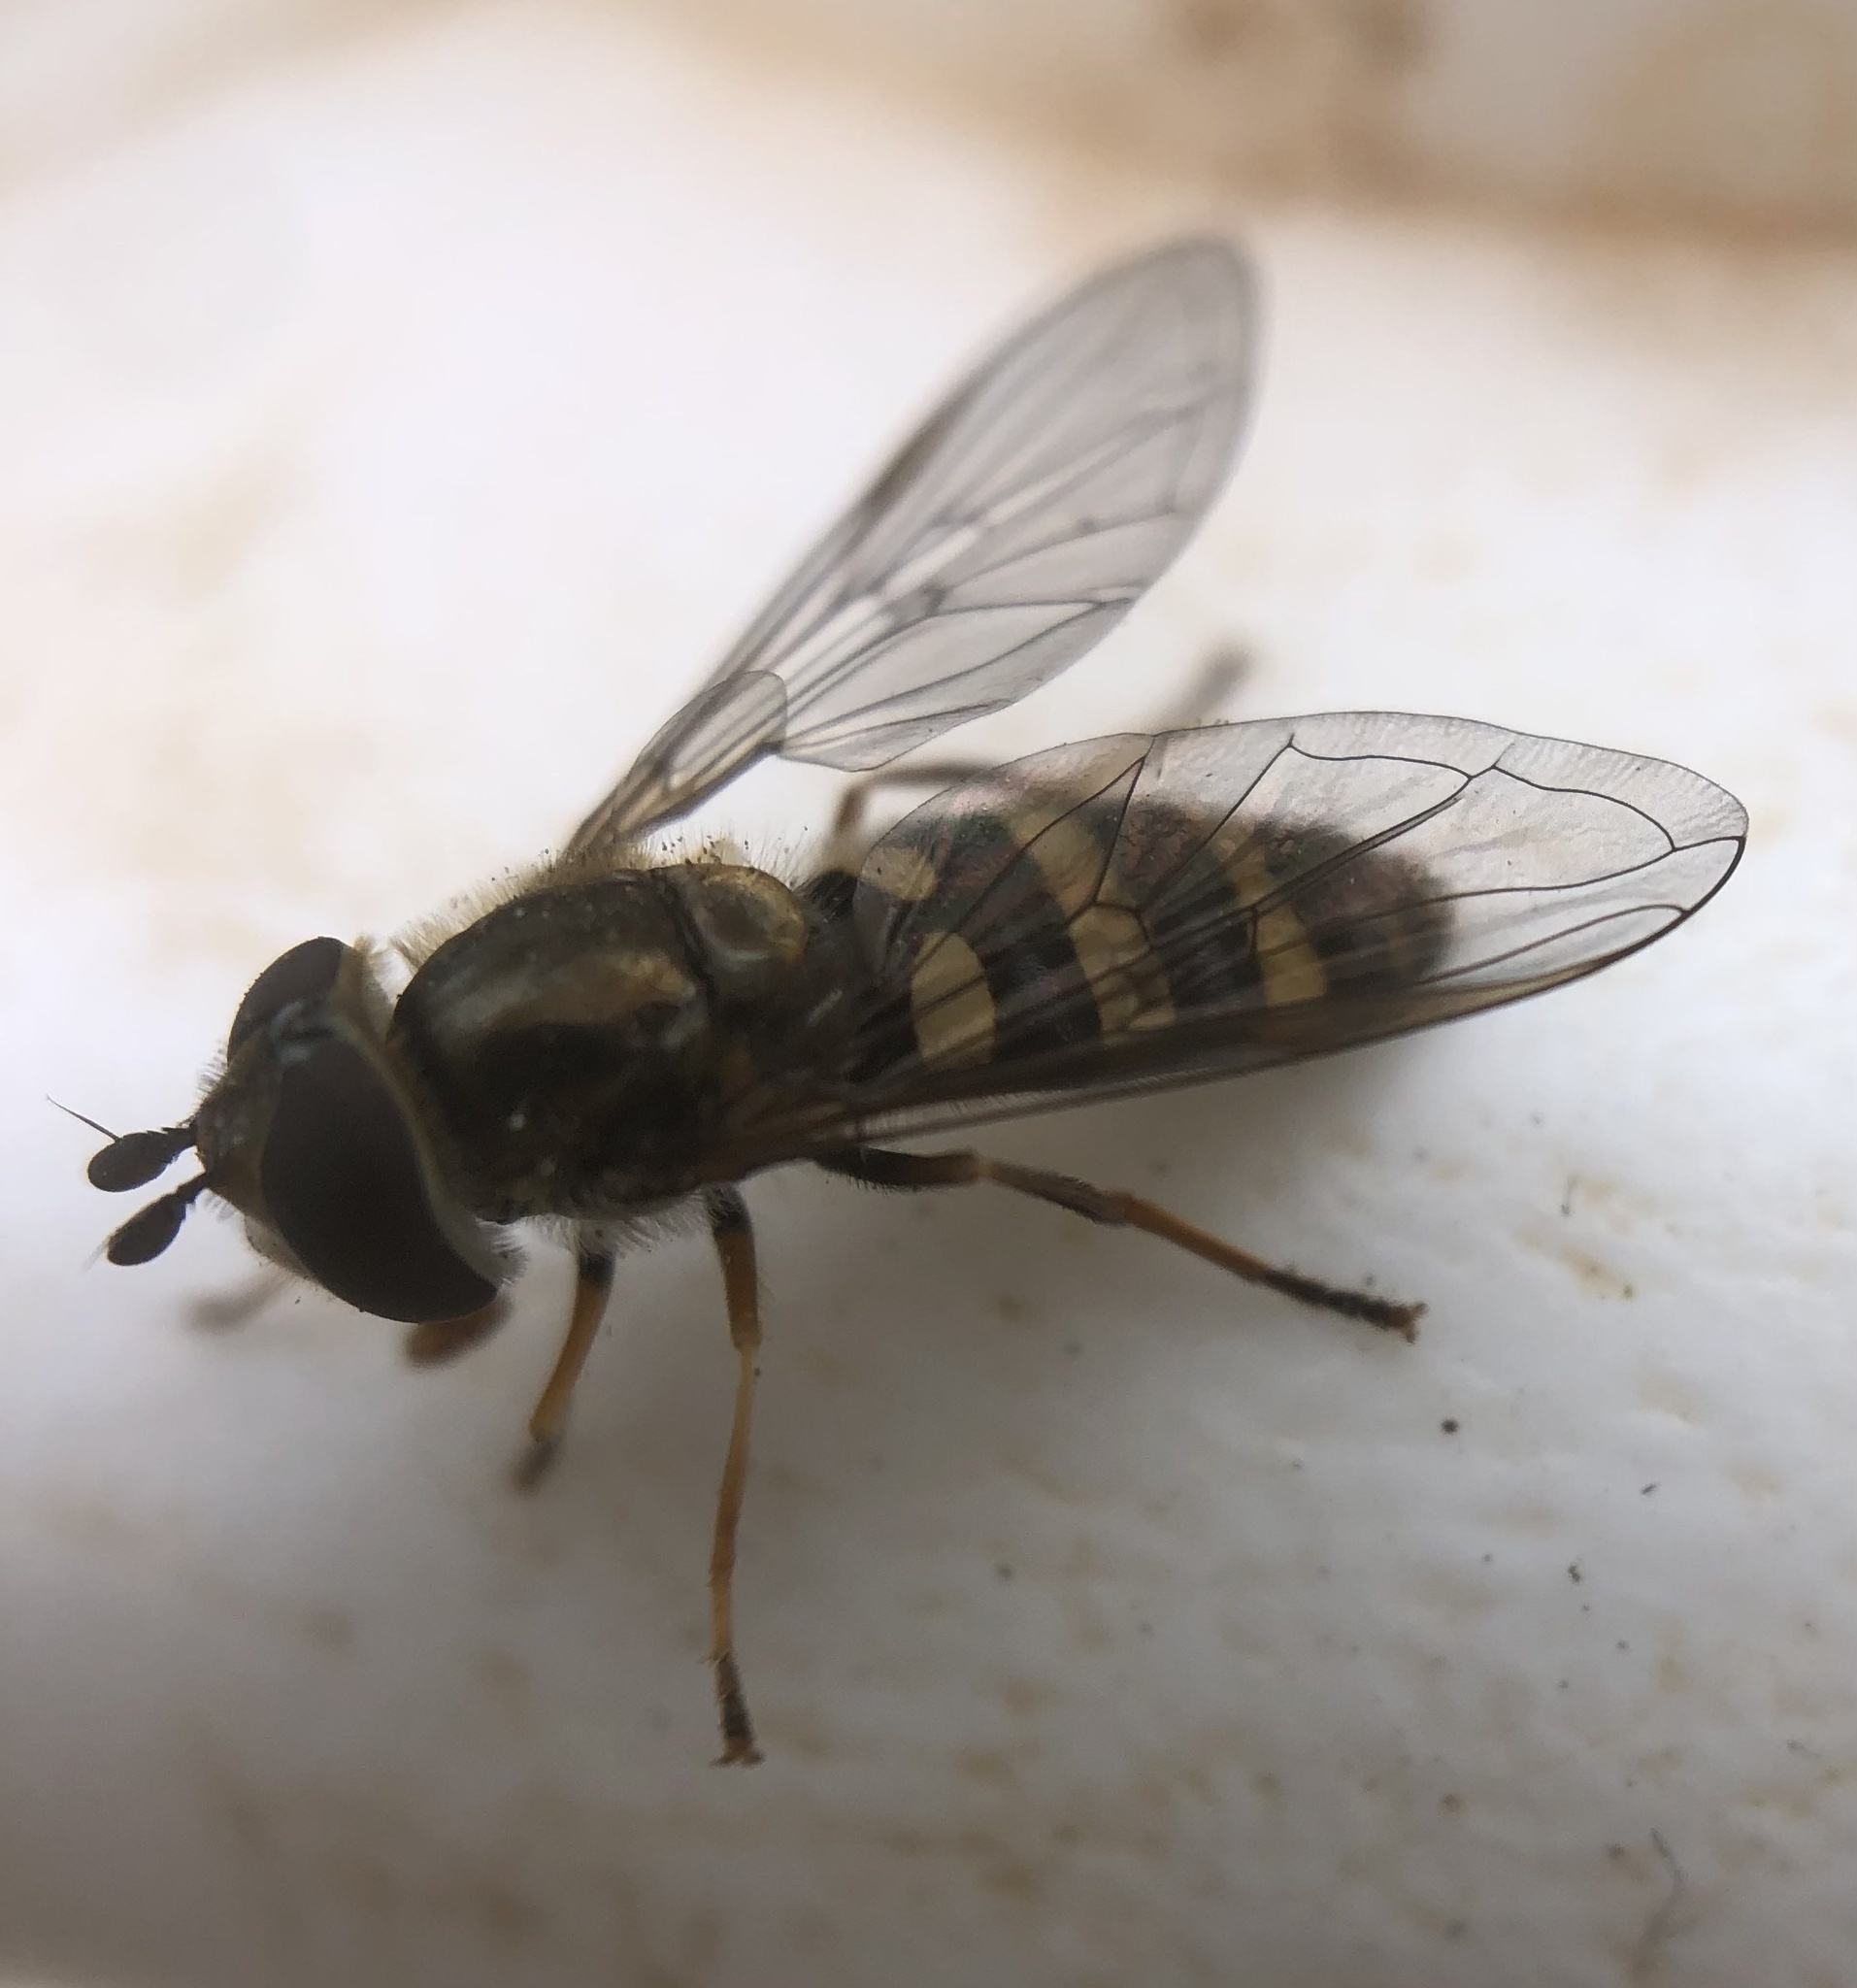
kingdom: Animalia
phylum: Arthropoda
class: Insecta
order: Diptera
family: Syrphidae
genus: Eupeodes
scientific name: Eupeodes
